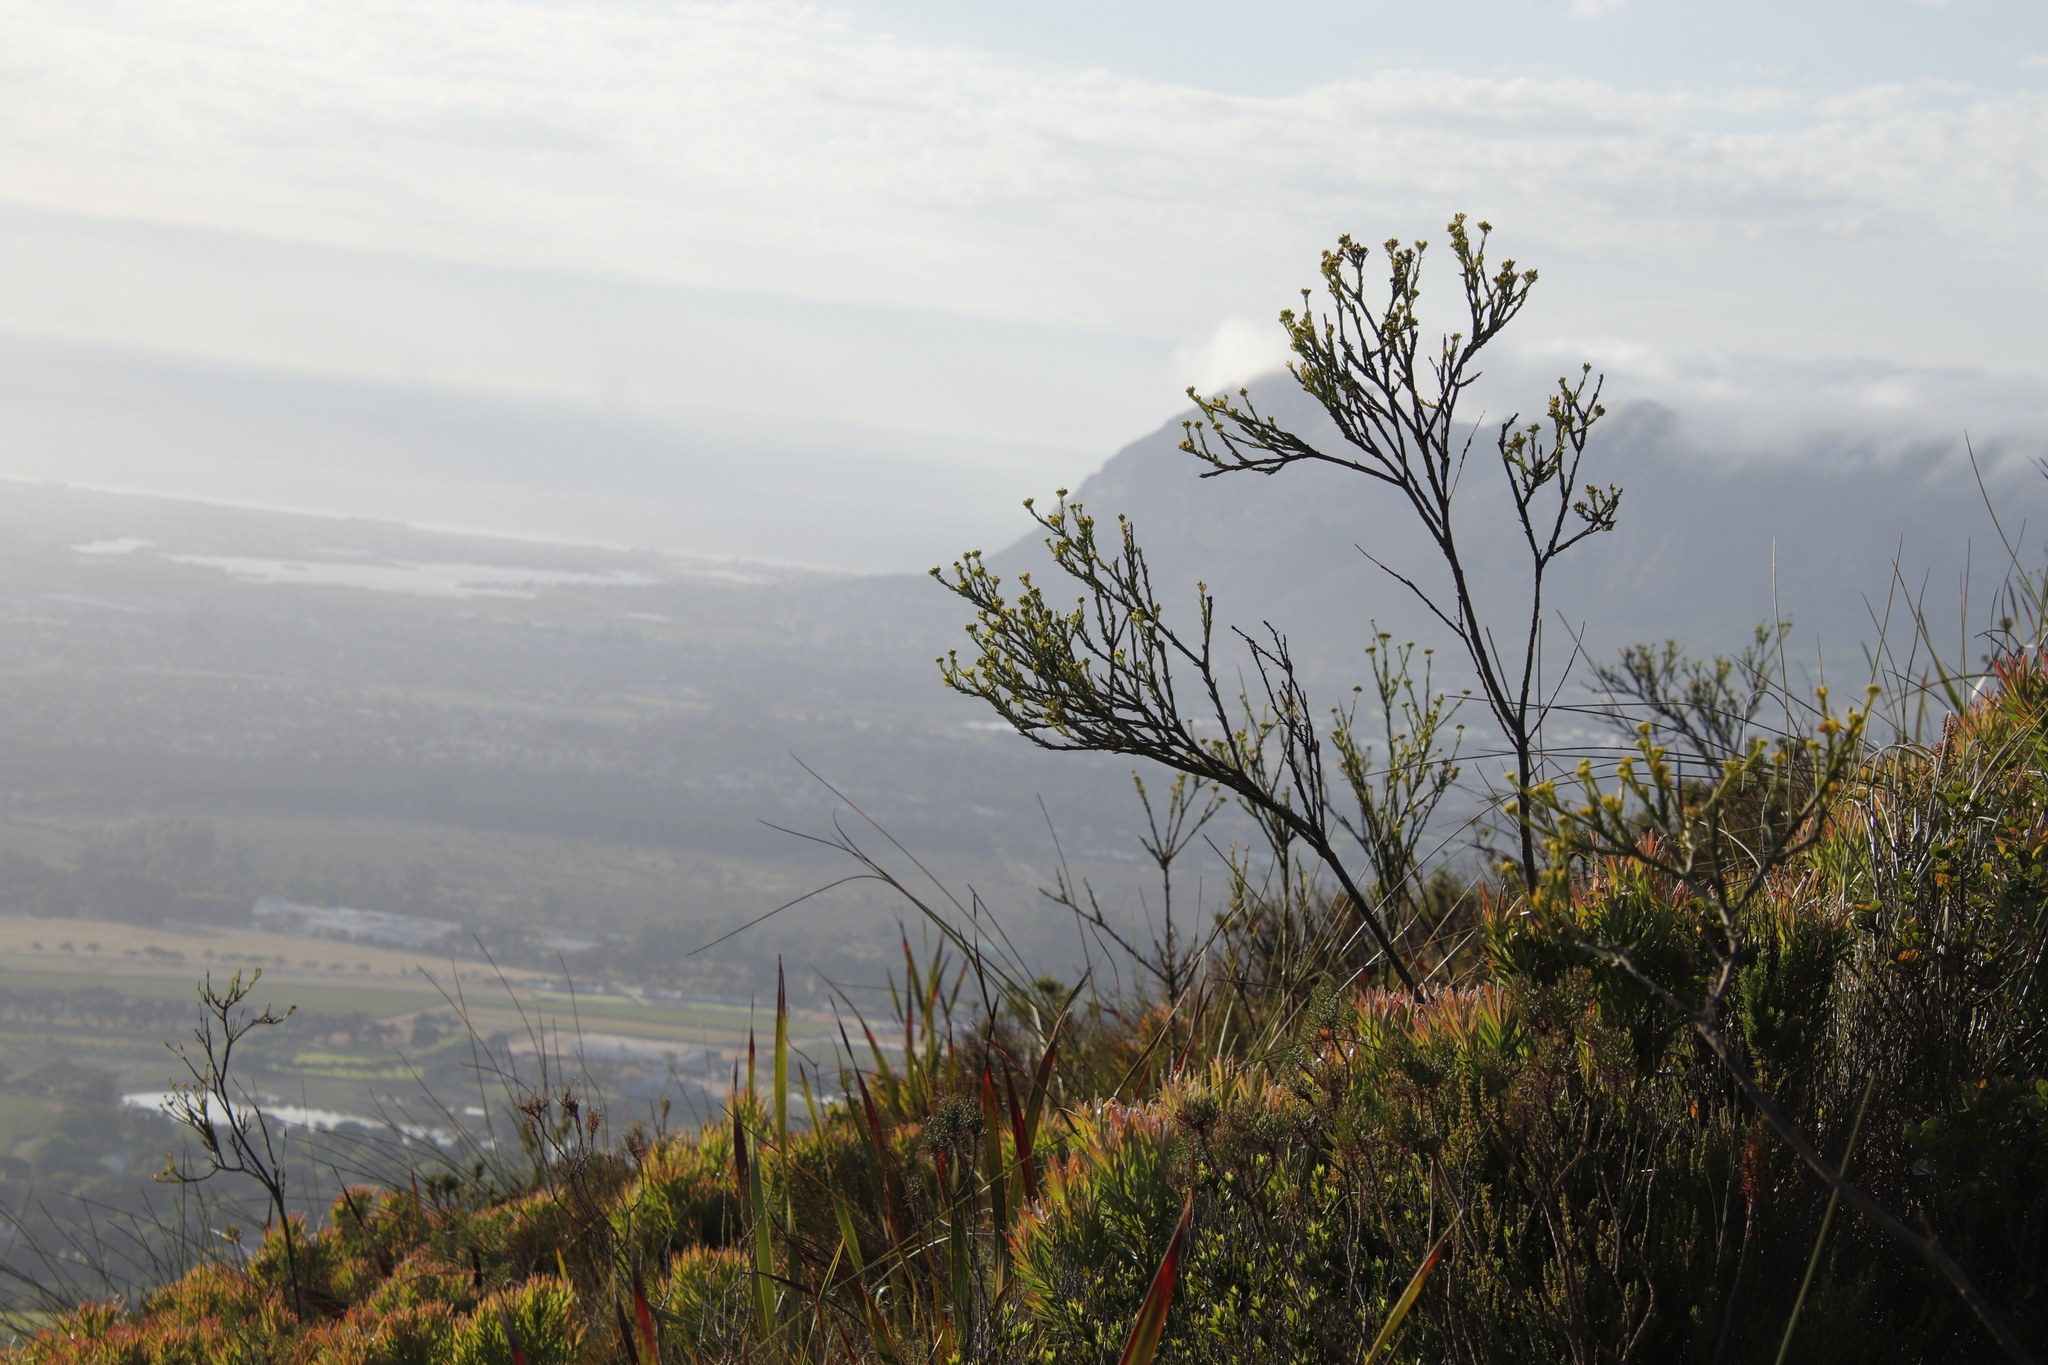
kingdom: Plantae
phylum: Tracheophyta
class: Magnoliopsida
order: Santalales
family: Thesiaceae
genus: Thesium
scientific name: Thesium strictum
